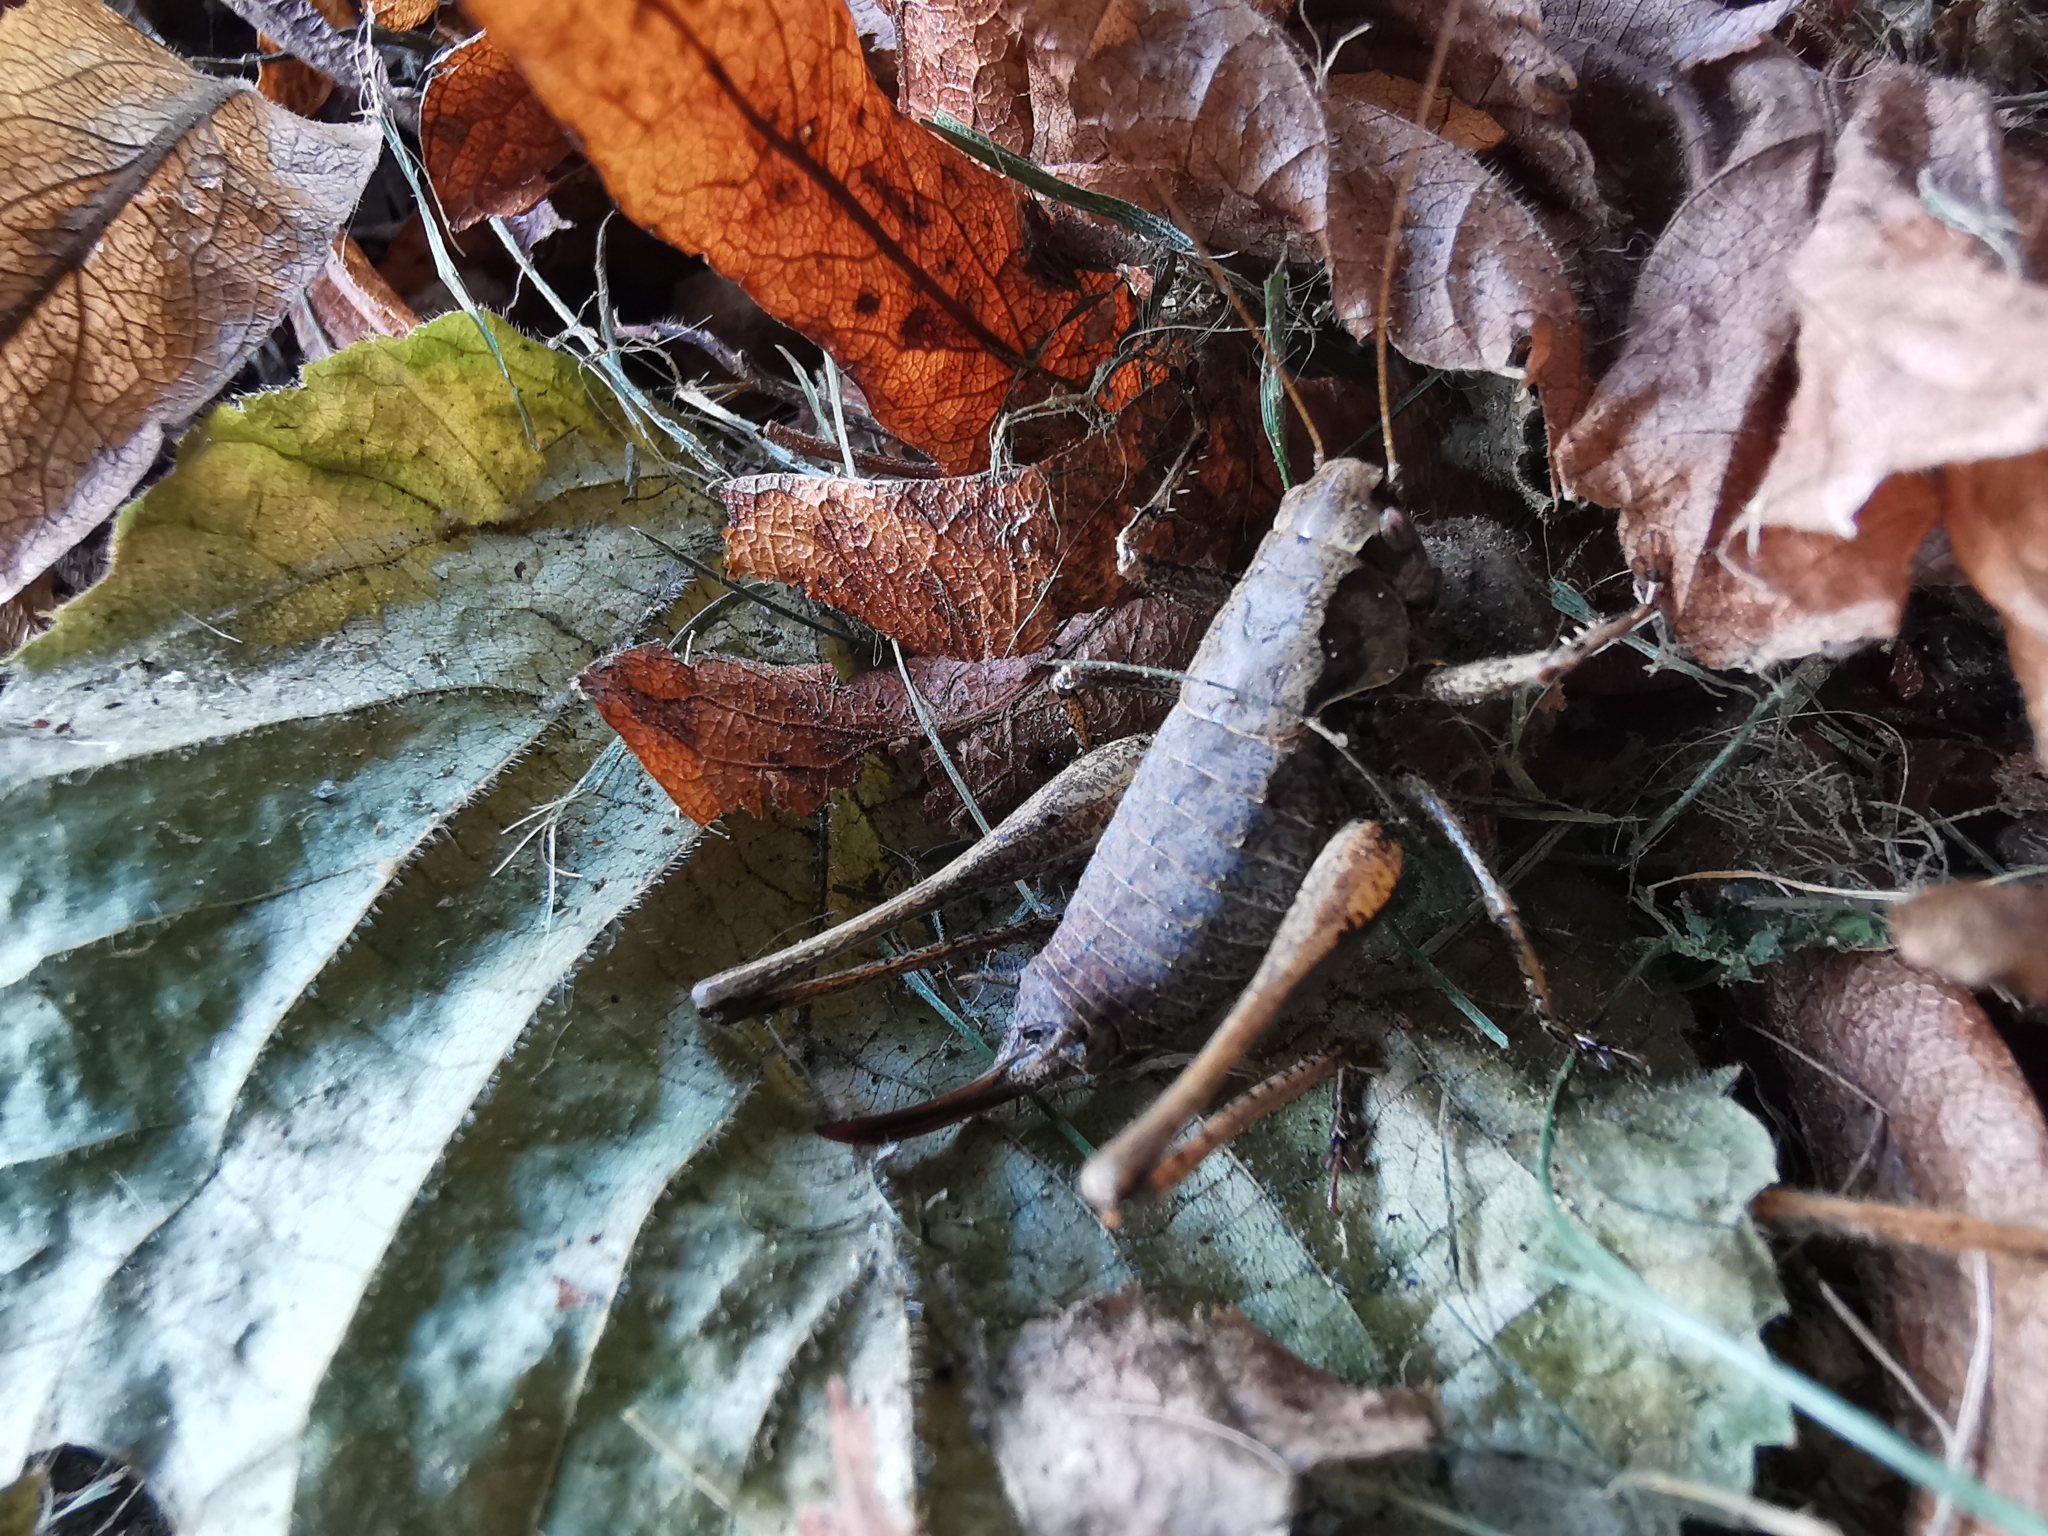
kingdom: Animalia
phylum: Arthropoda
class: Insecta
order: Orthoptera
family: Tettigoniidae
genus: Pholidoptera
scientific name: Pholidoptera griseoaptera
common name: Dark bush-cricket
